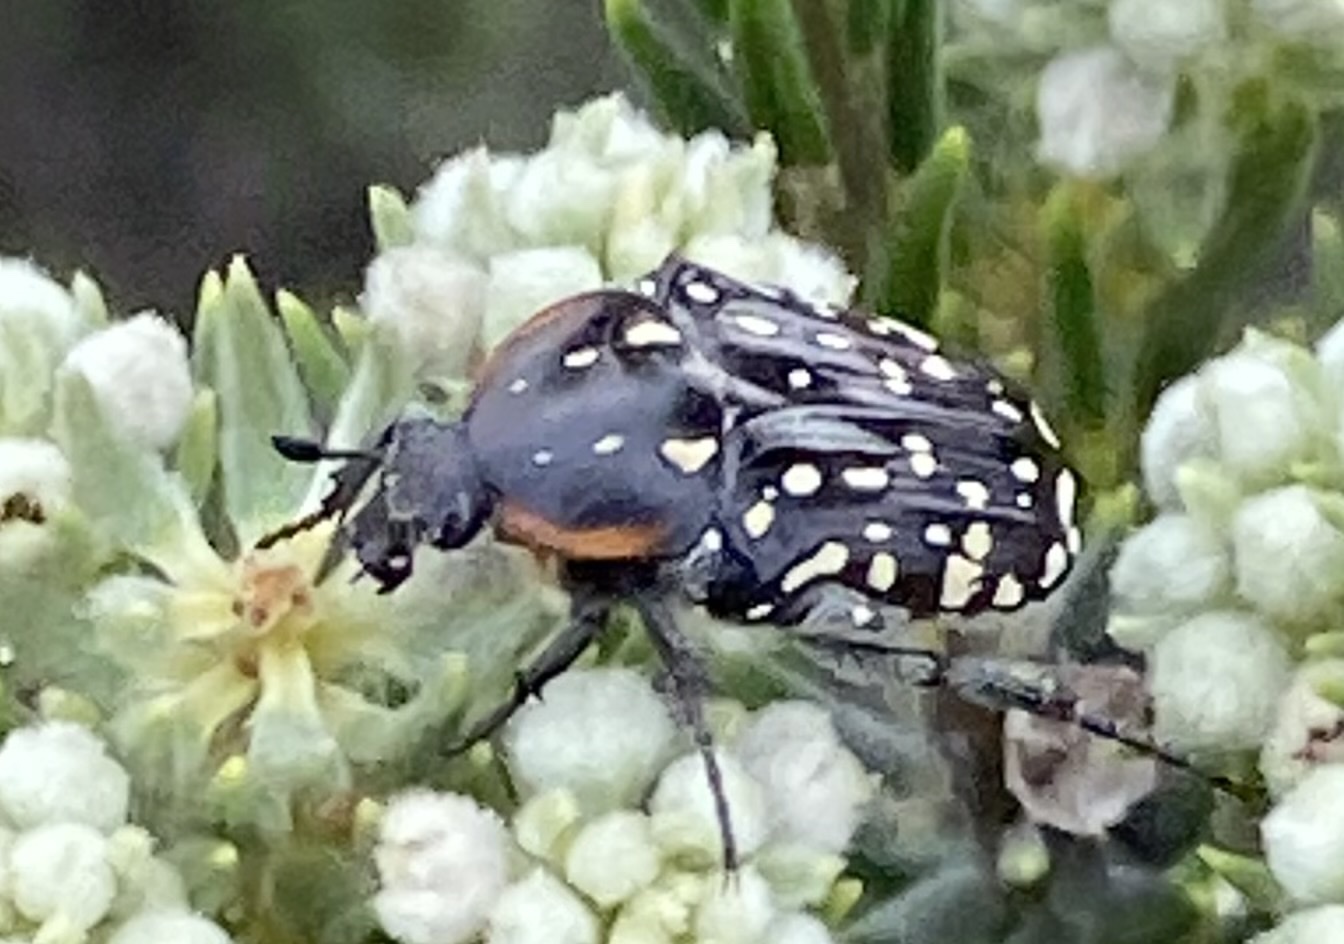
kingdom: Animalia
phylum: Arthropoda
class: Insecta
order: Coleoptera
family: Scarabaeidae
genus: Oxythyrea
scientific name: Oxythyrea
